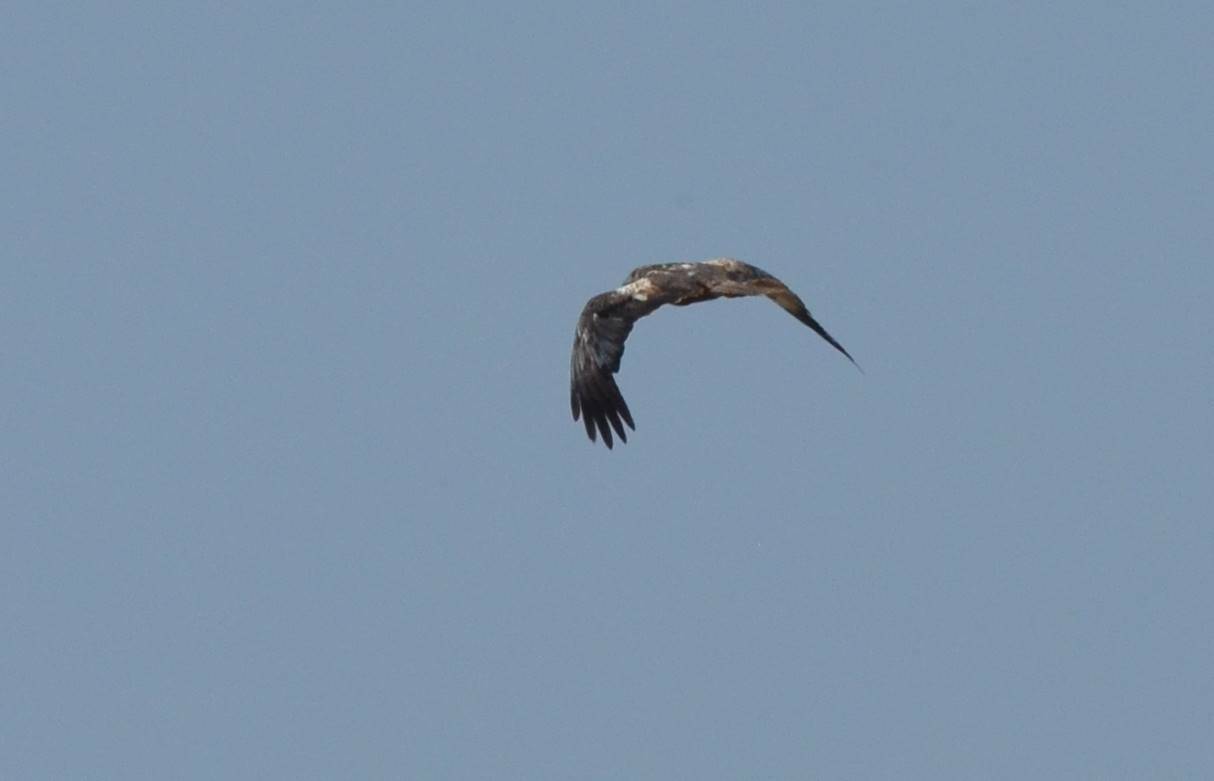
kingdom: Animalia
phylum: Chordata
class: Aves
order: Accipitriformes
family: Accipitridae
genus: Circus
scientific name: Circus aeruginosus
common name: Western marsh harrier
